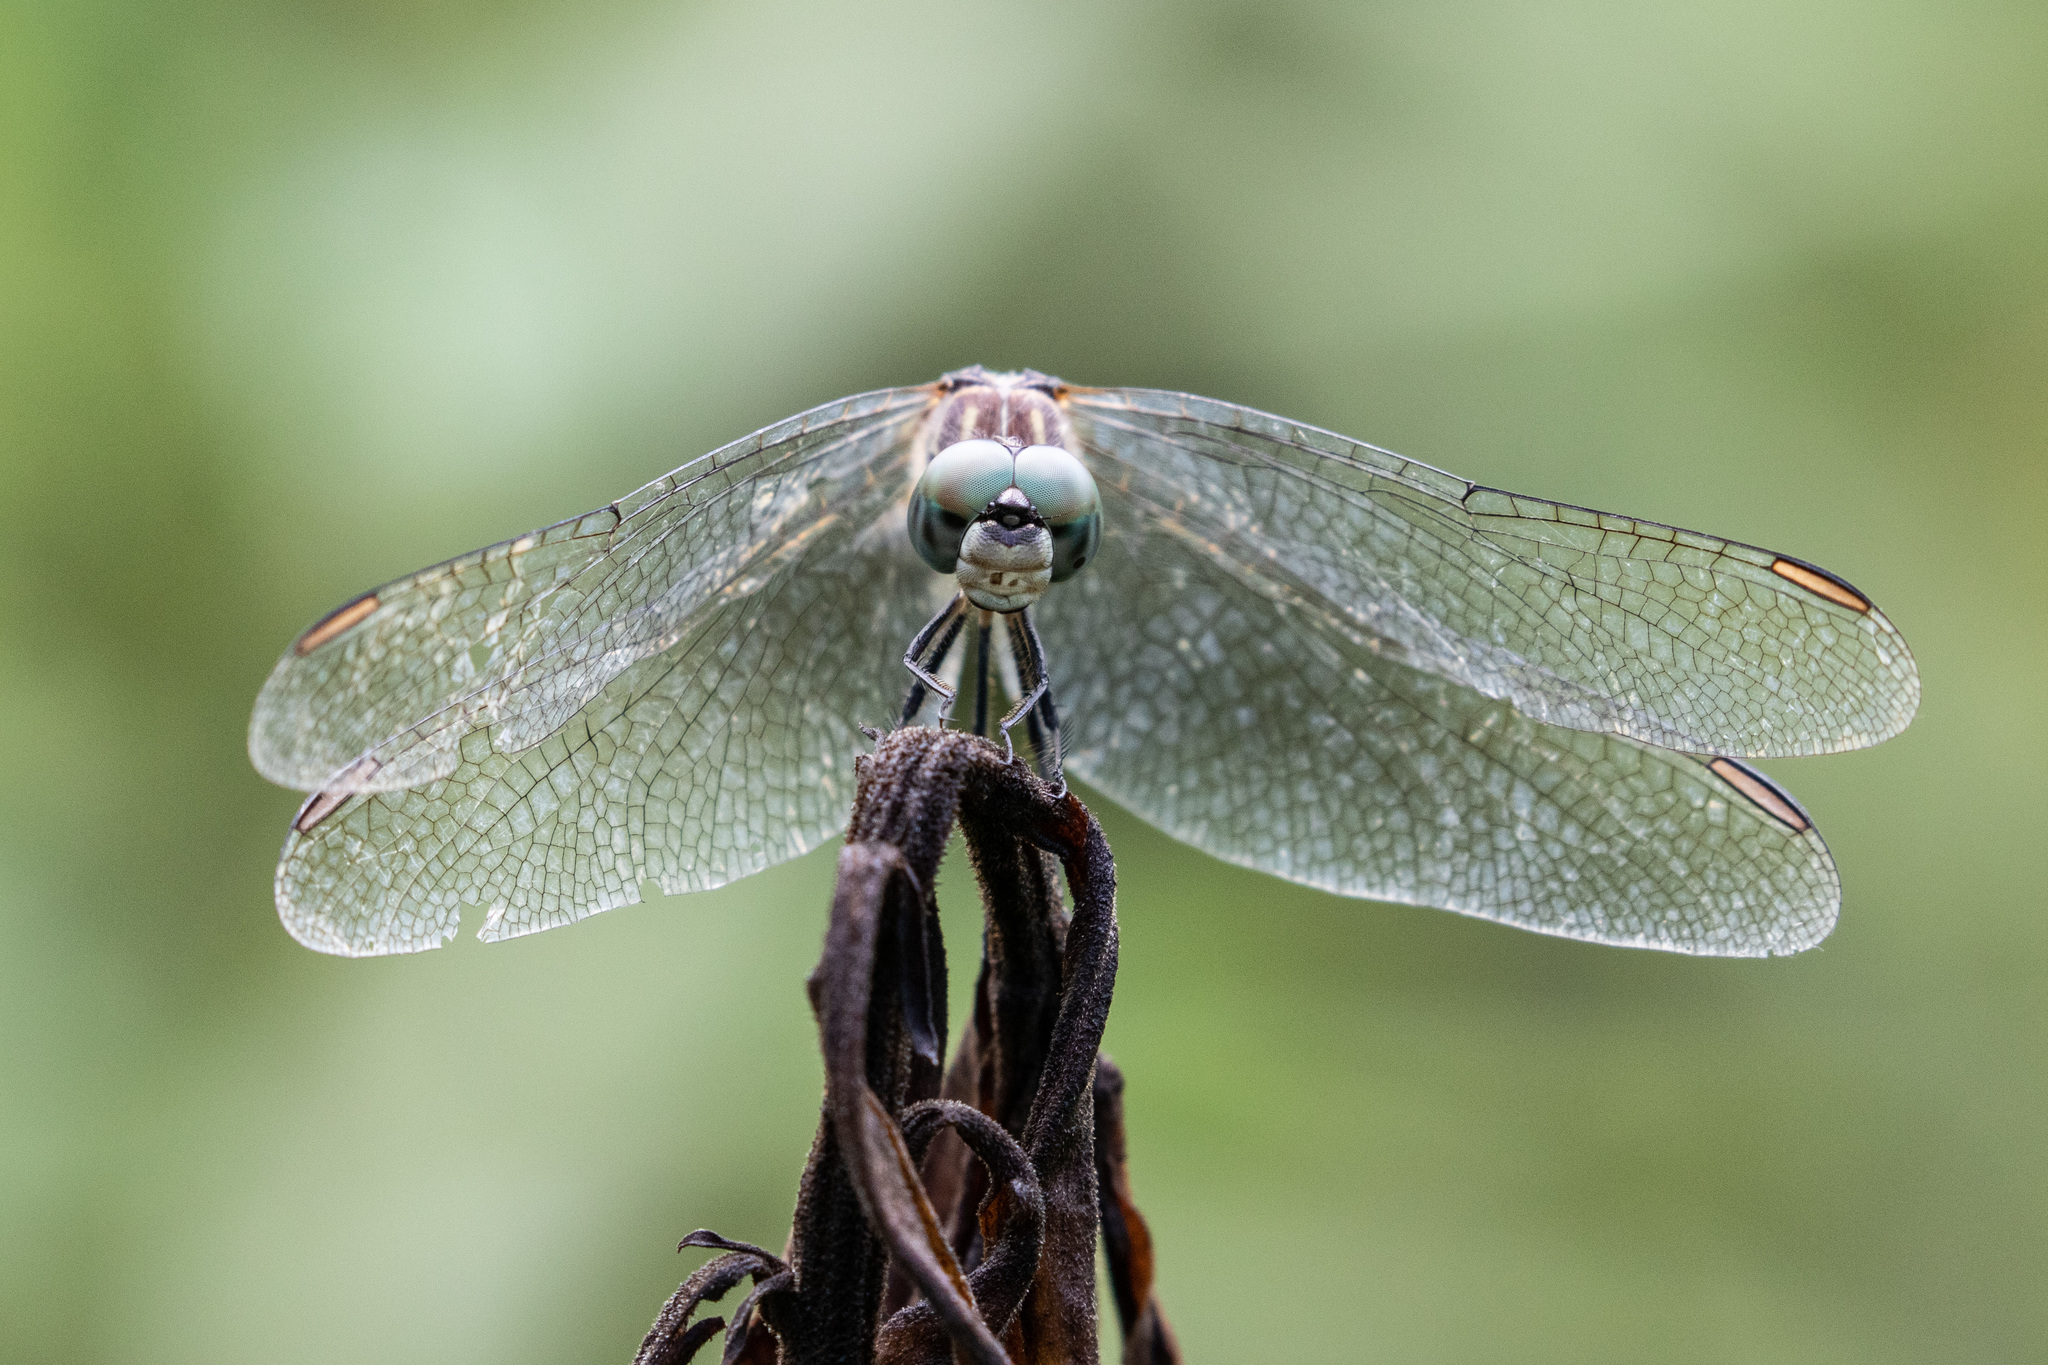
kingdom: Animalia
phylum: Arthropoda
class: Insecta
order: Odonata
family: Libellulidae
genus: Pachydiplax
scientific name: Pachydiplax longipennis
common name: Blue dasher
